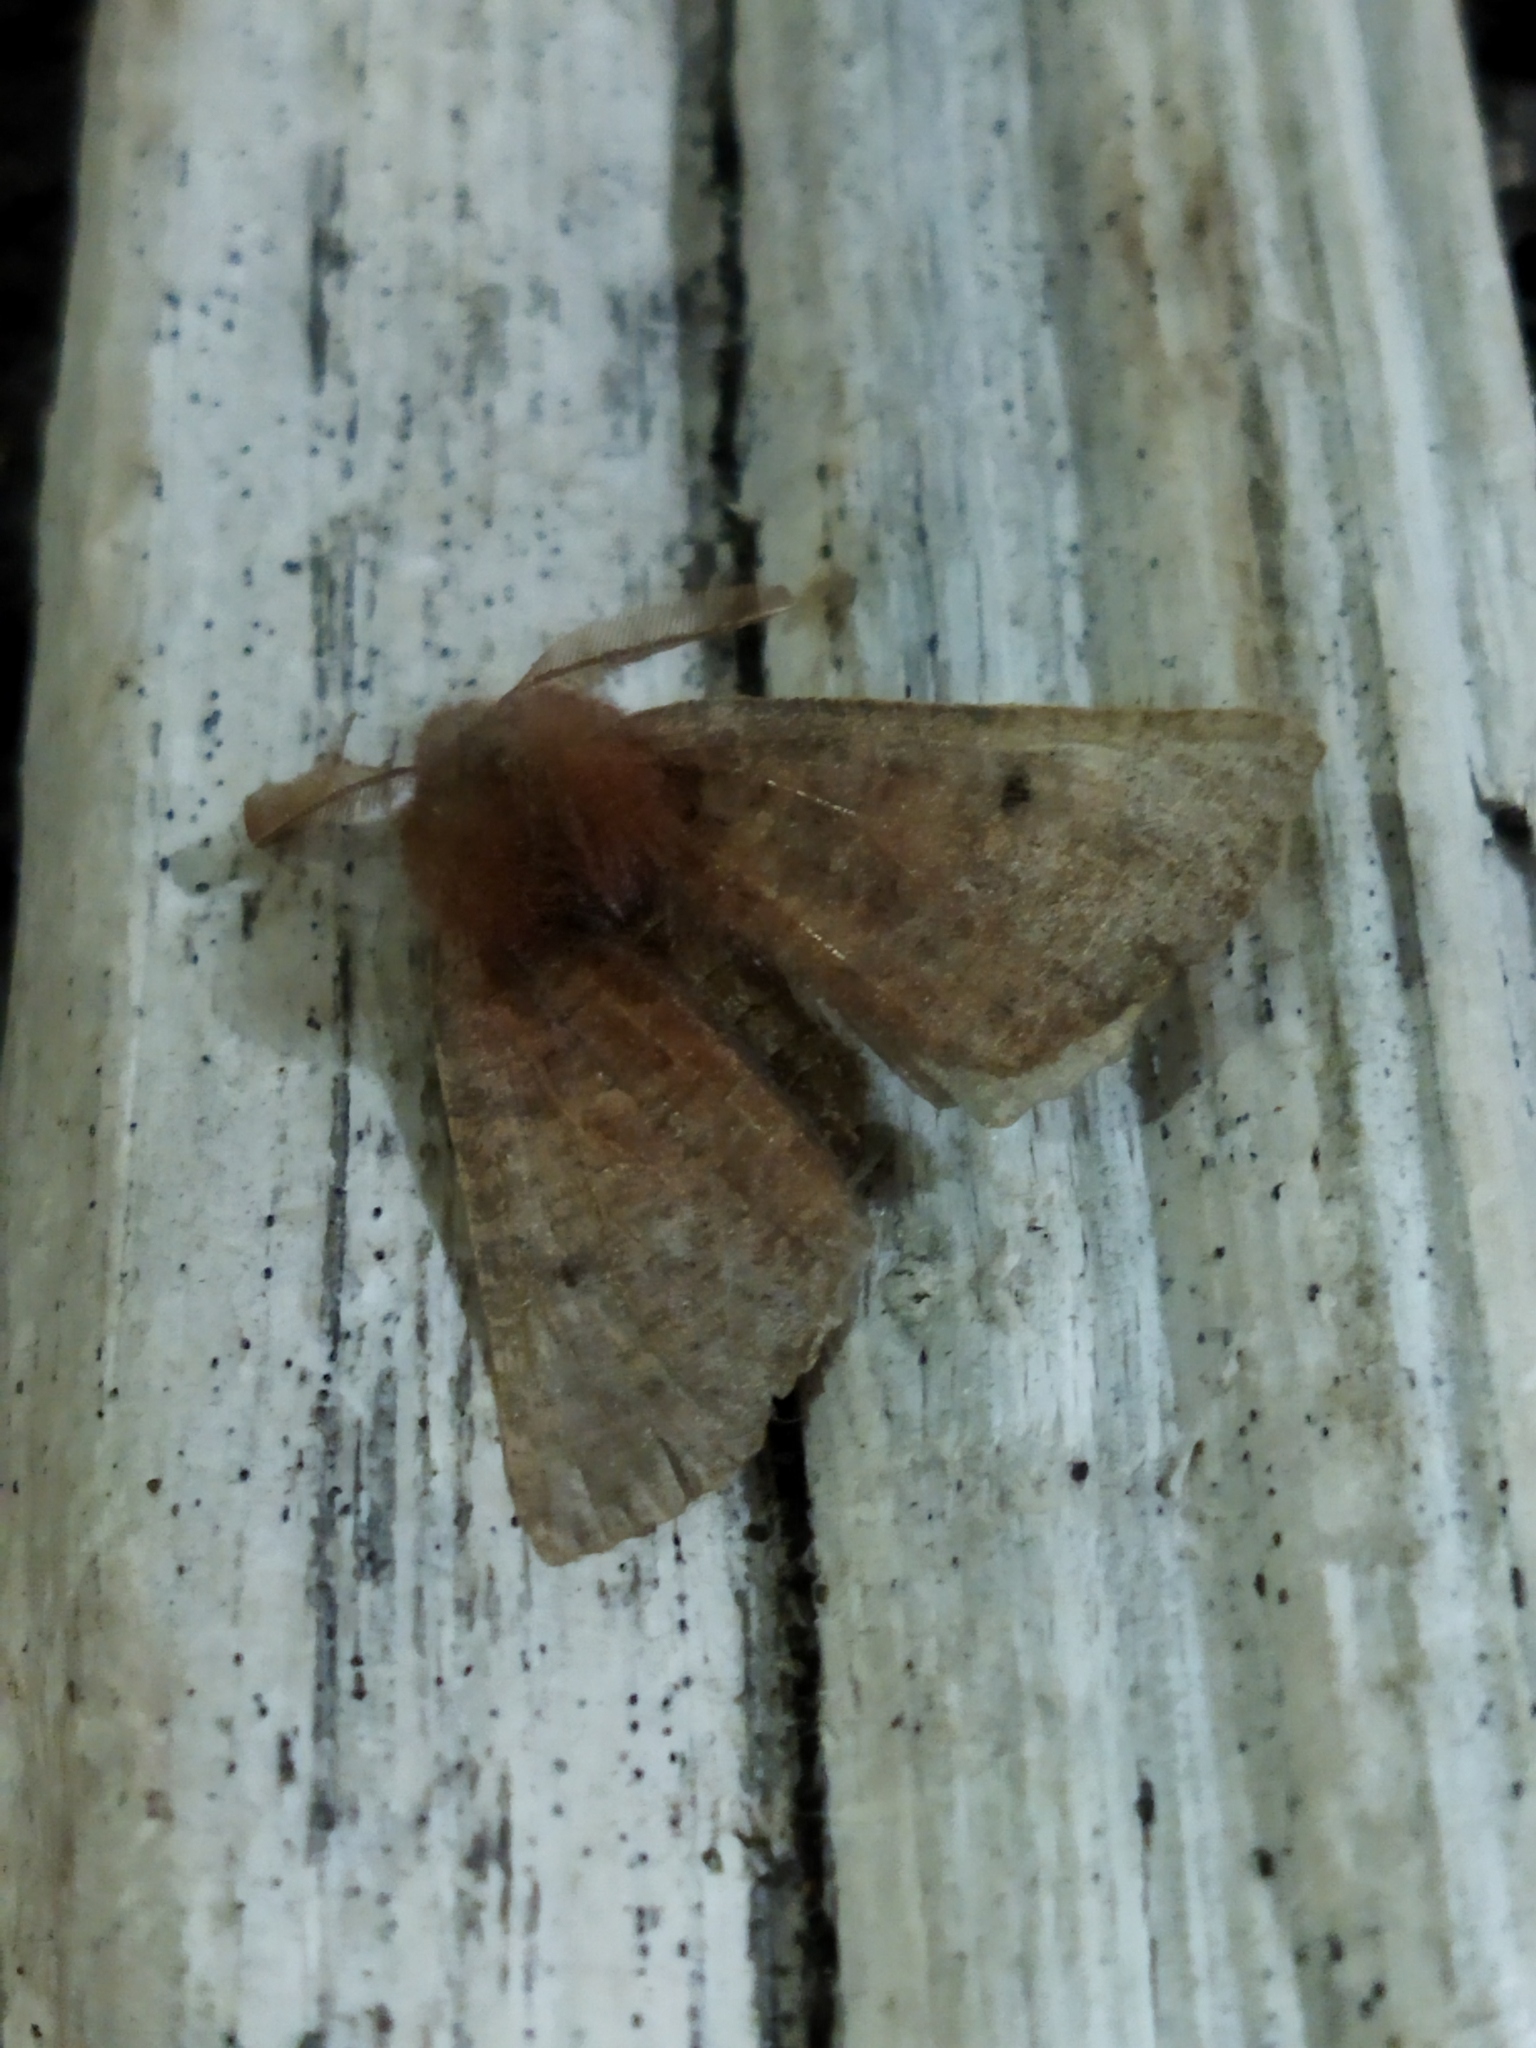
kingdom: Animalia
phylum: Arthropoda
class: Insecta
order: Lepidoptera
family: Geometridae
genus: Dasycorsa
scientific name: Dasycorsa modesta
